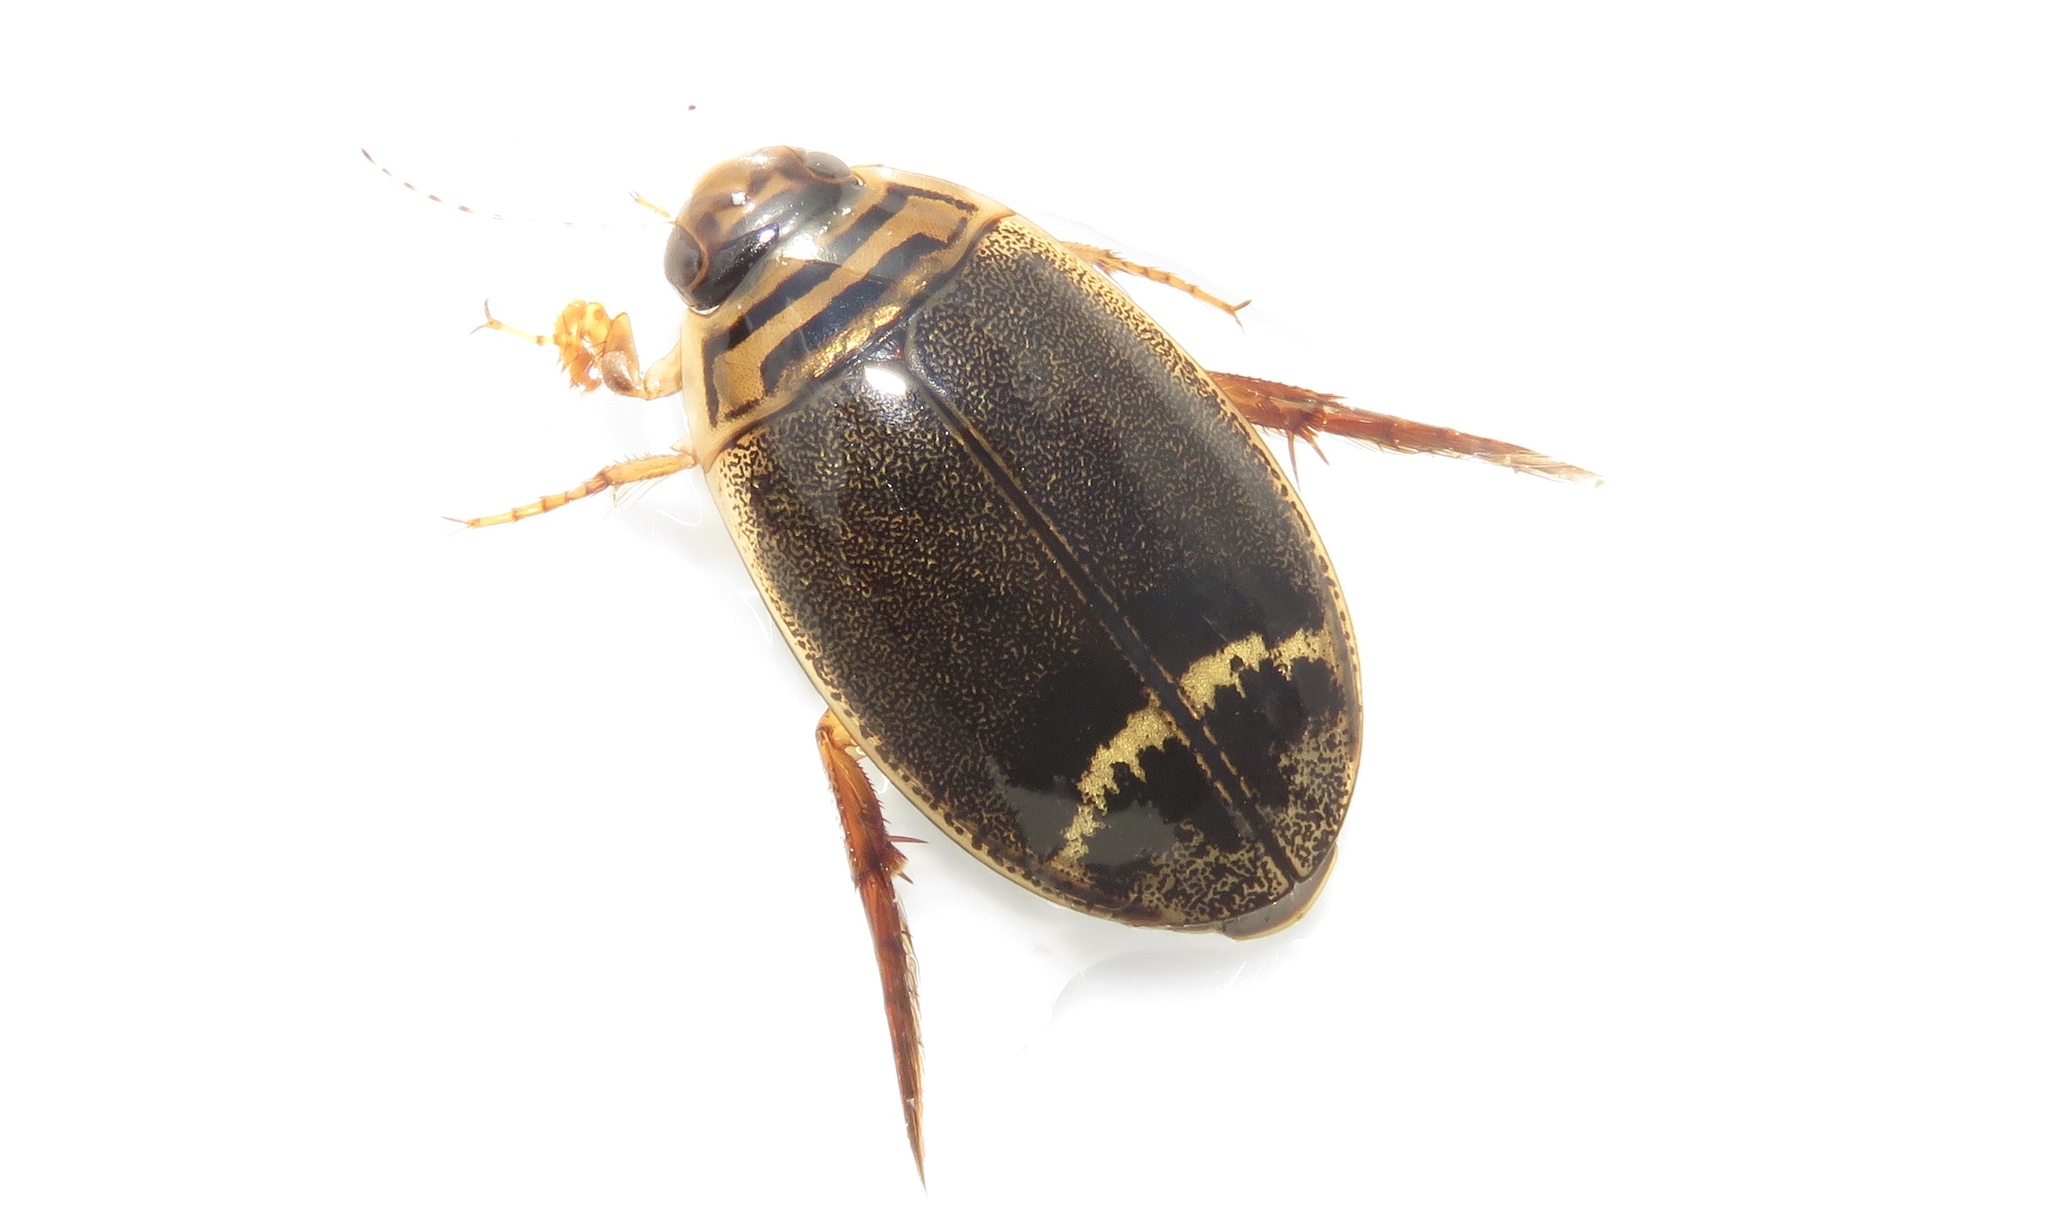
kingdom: Animalia
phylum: Arthropoda
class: Insecta
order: Coleoptera
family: Dytiscidae
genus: Acilius
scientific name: Acilius semisulcatus
